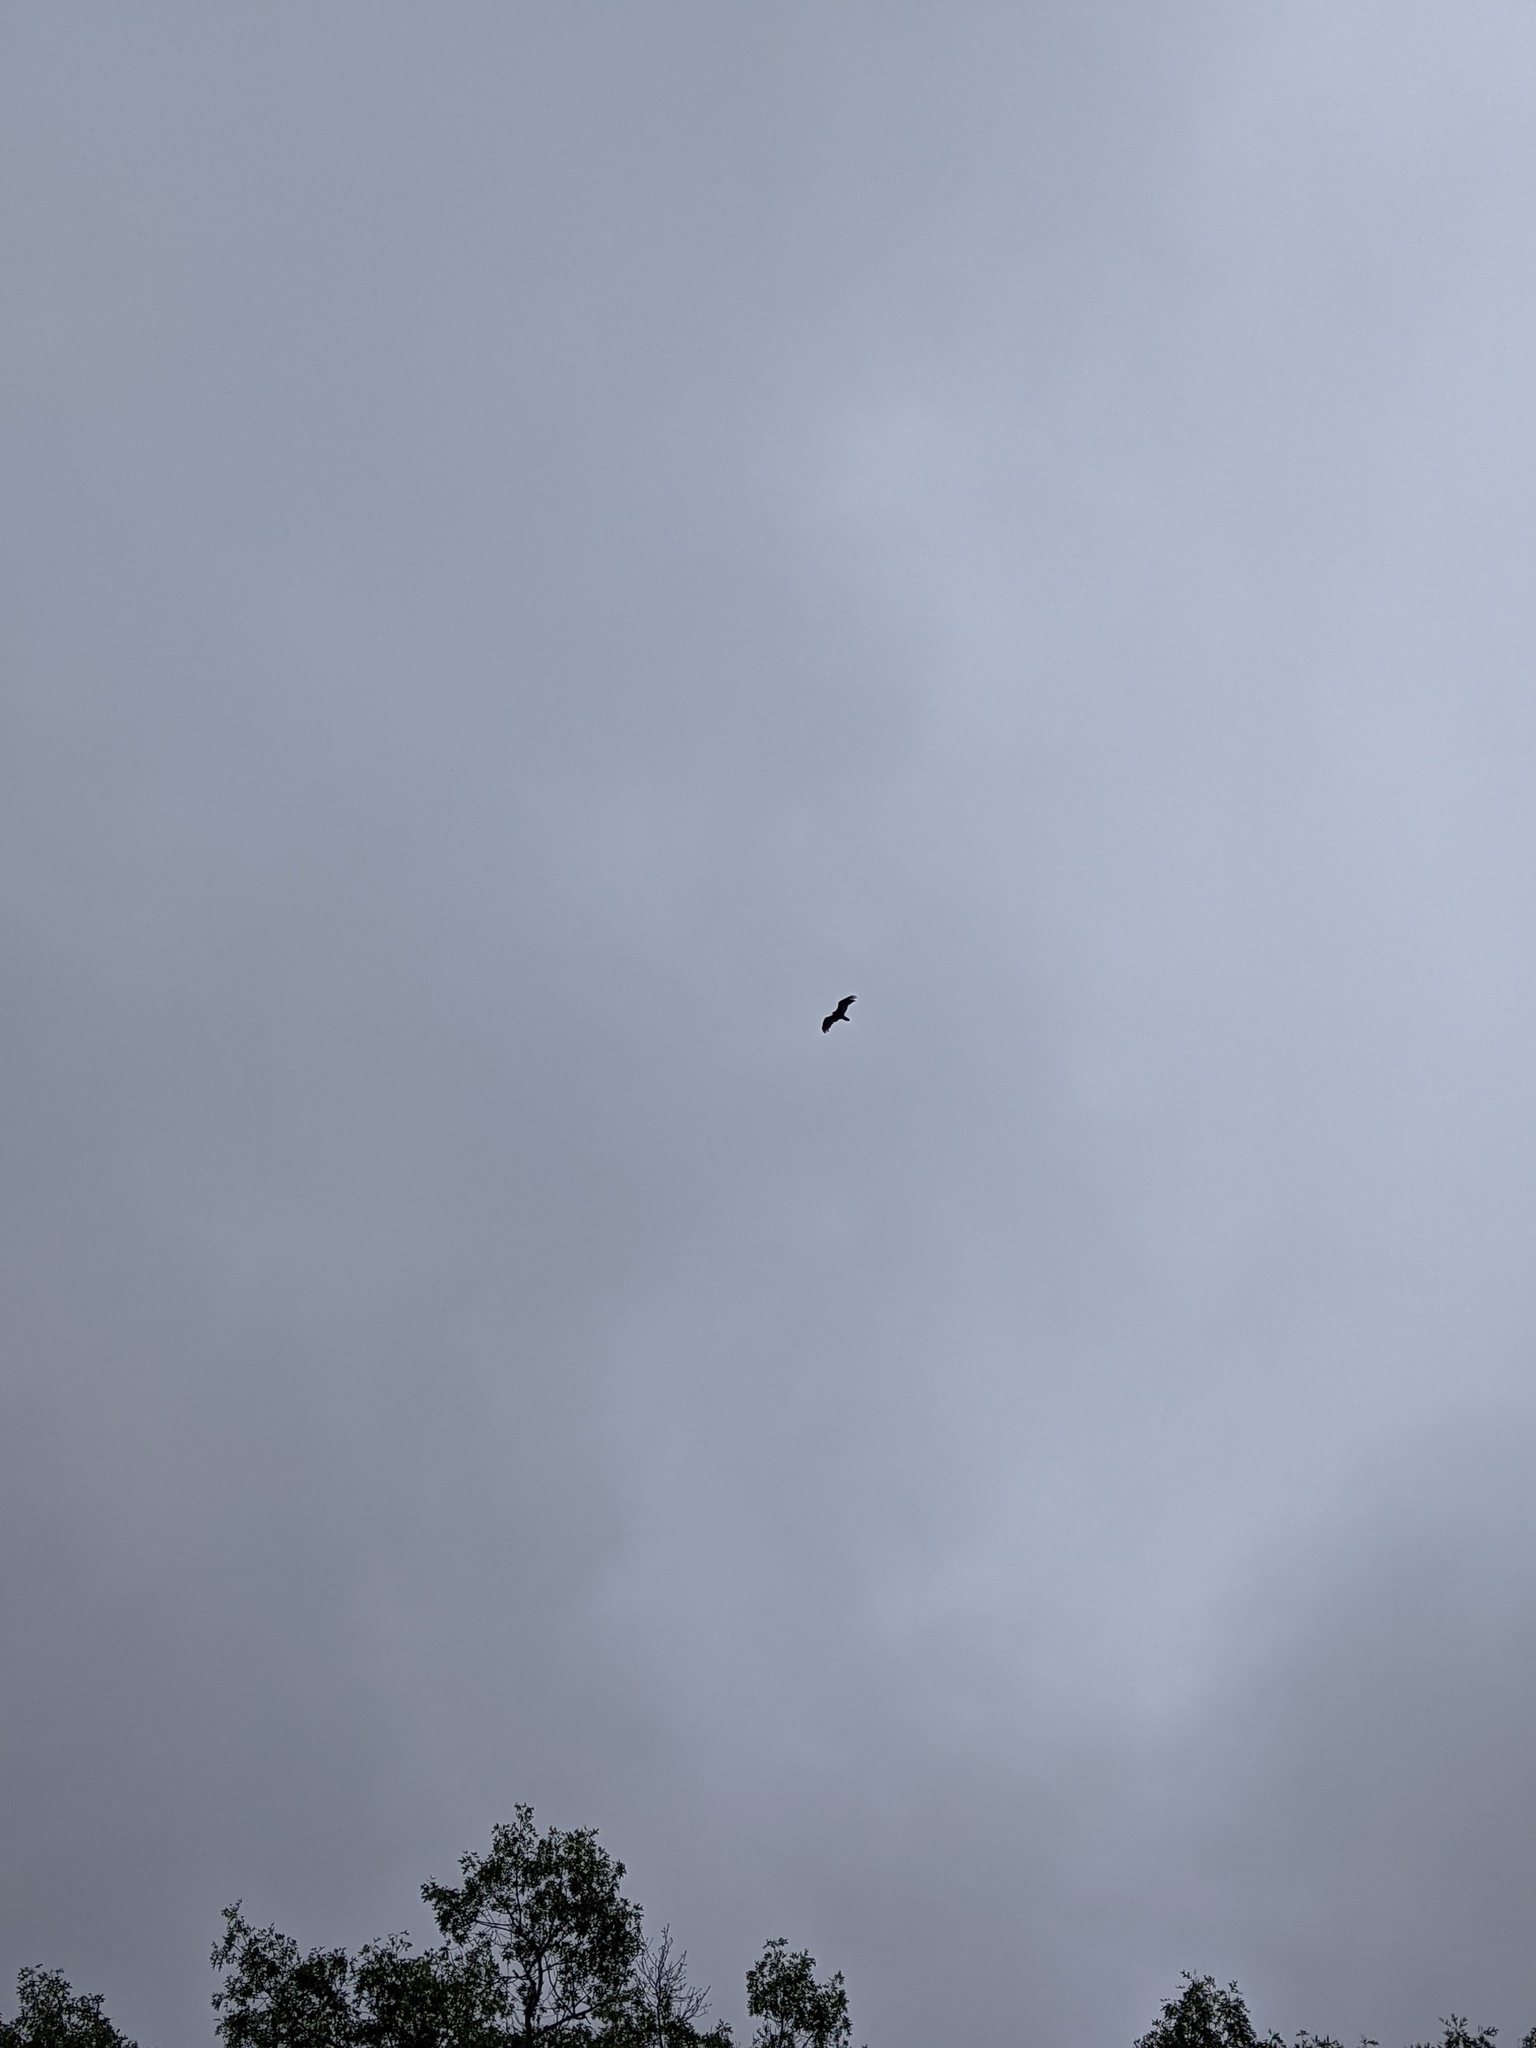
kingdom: Animalia
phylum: Chordata
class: Aves
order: Accipitriformes
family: Cathartidae
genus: Cathartes
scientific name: Cathartes aura
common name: Turkey vulture
